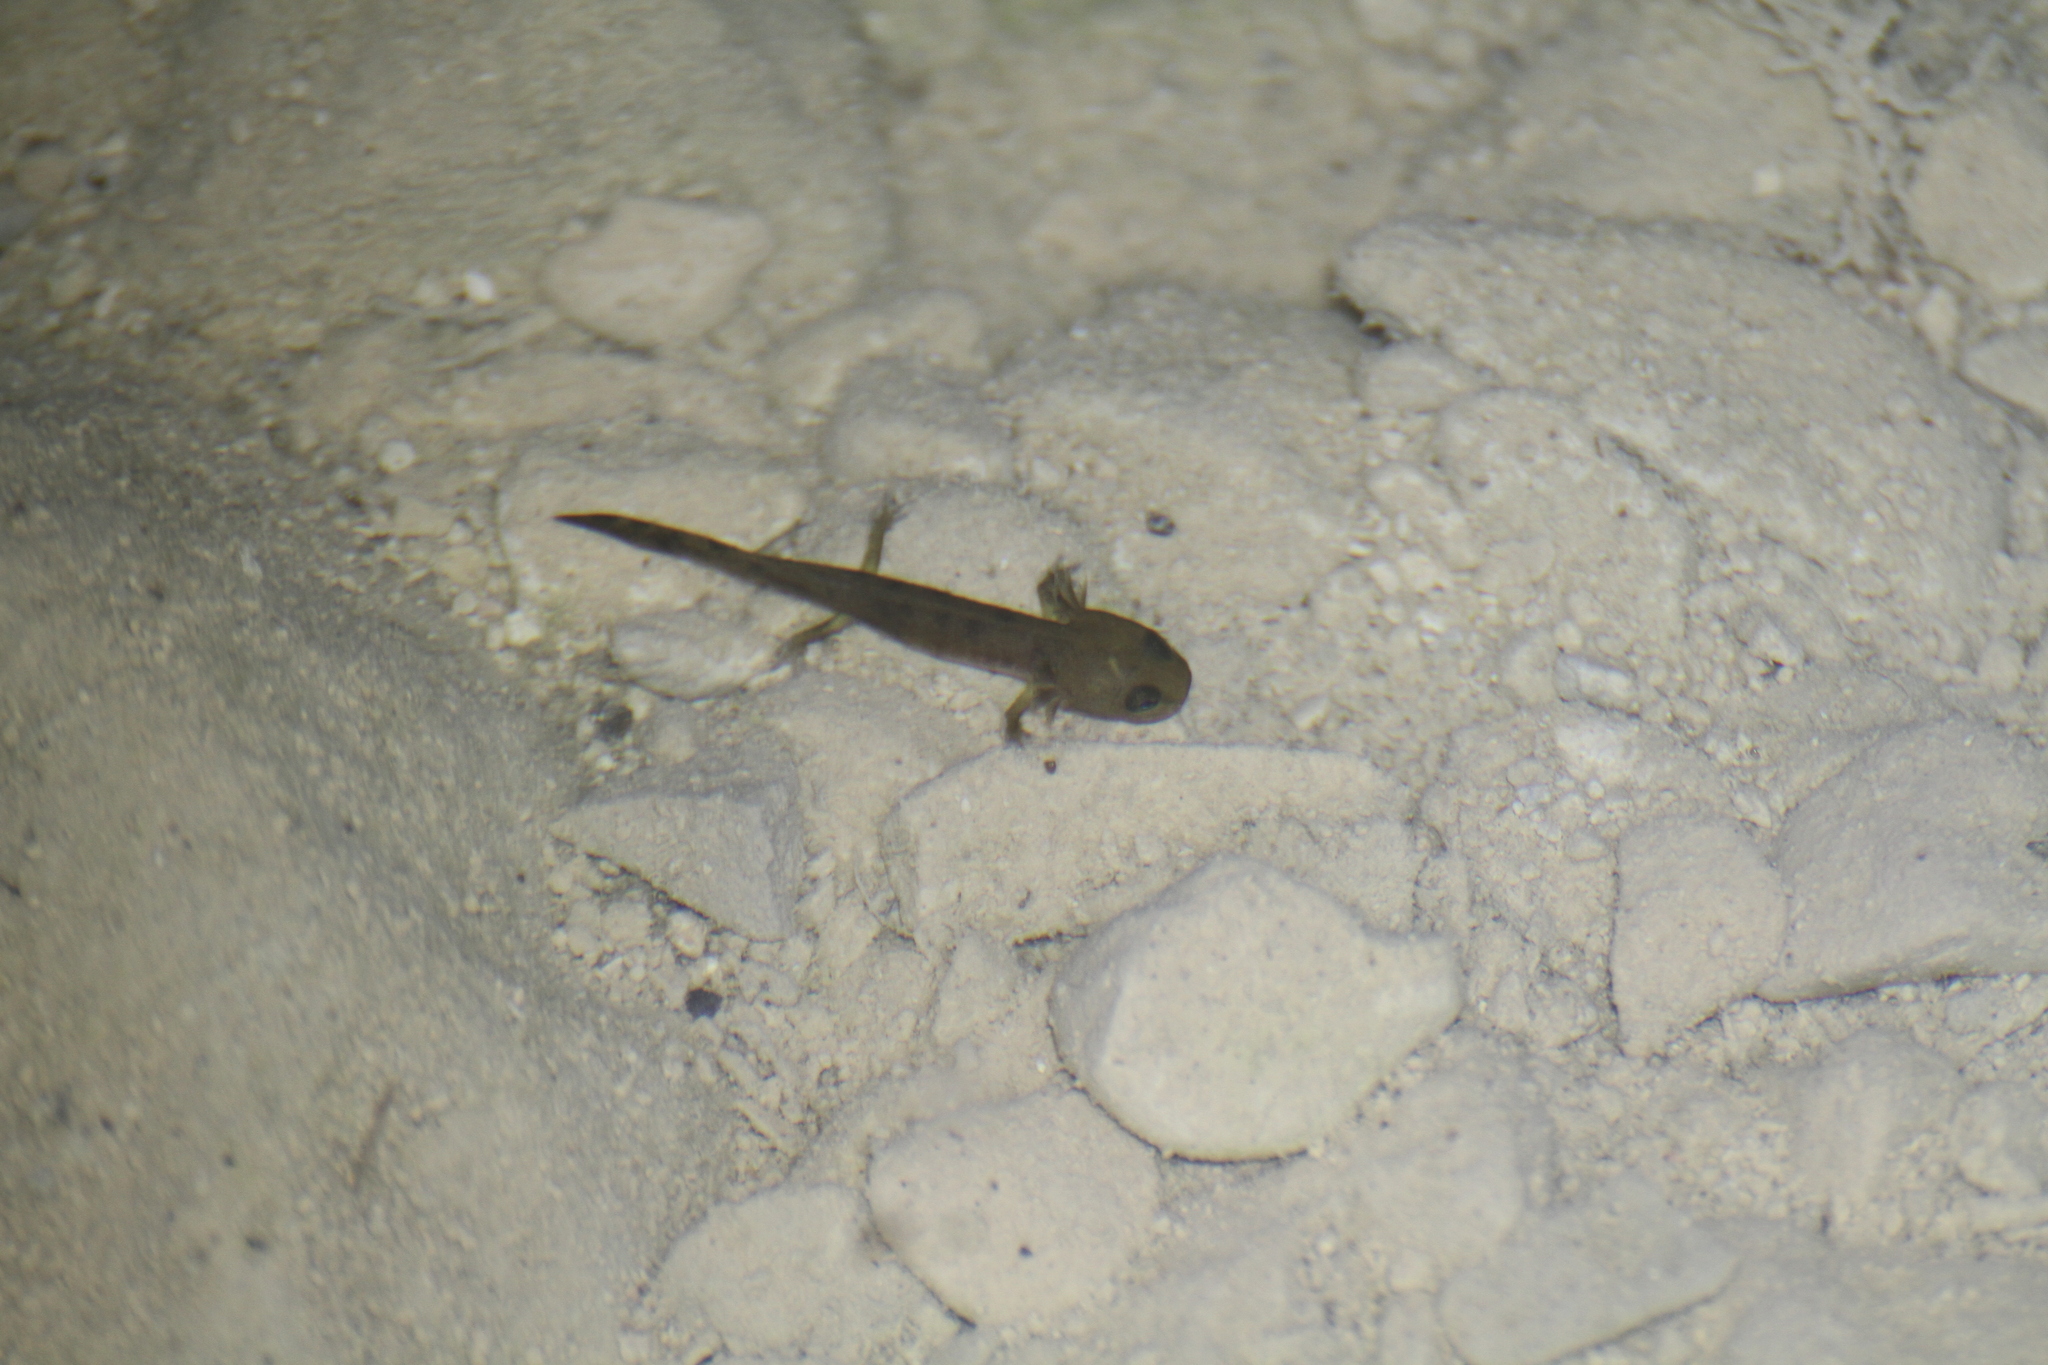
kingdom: Animalia
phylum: Chordata
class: Amphibia
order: Caudata
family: Salamandridae
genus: Salamandra
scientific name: Salamandra salamandra
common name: Fire salamander
